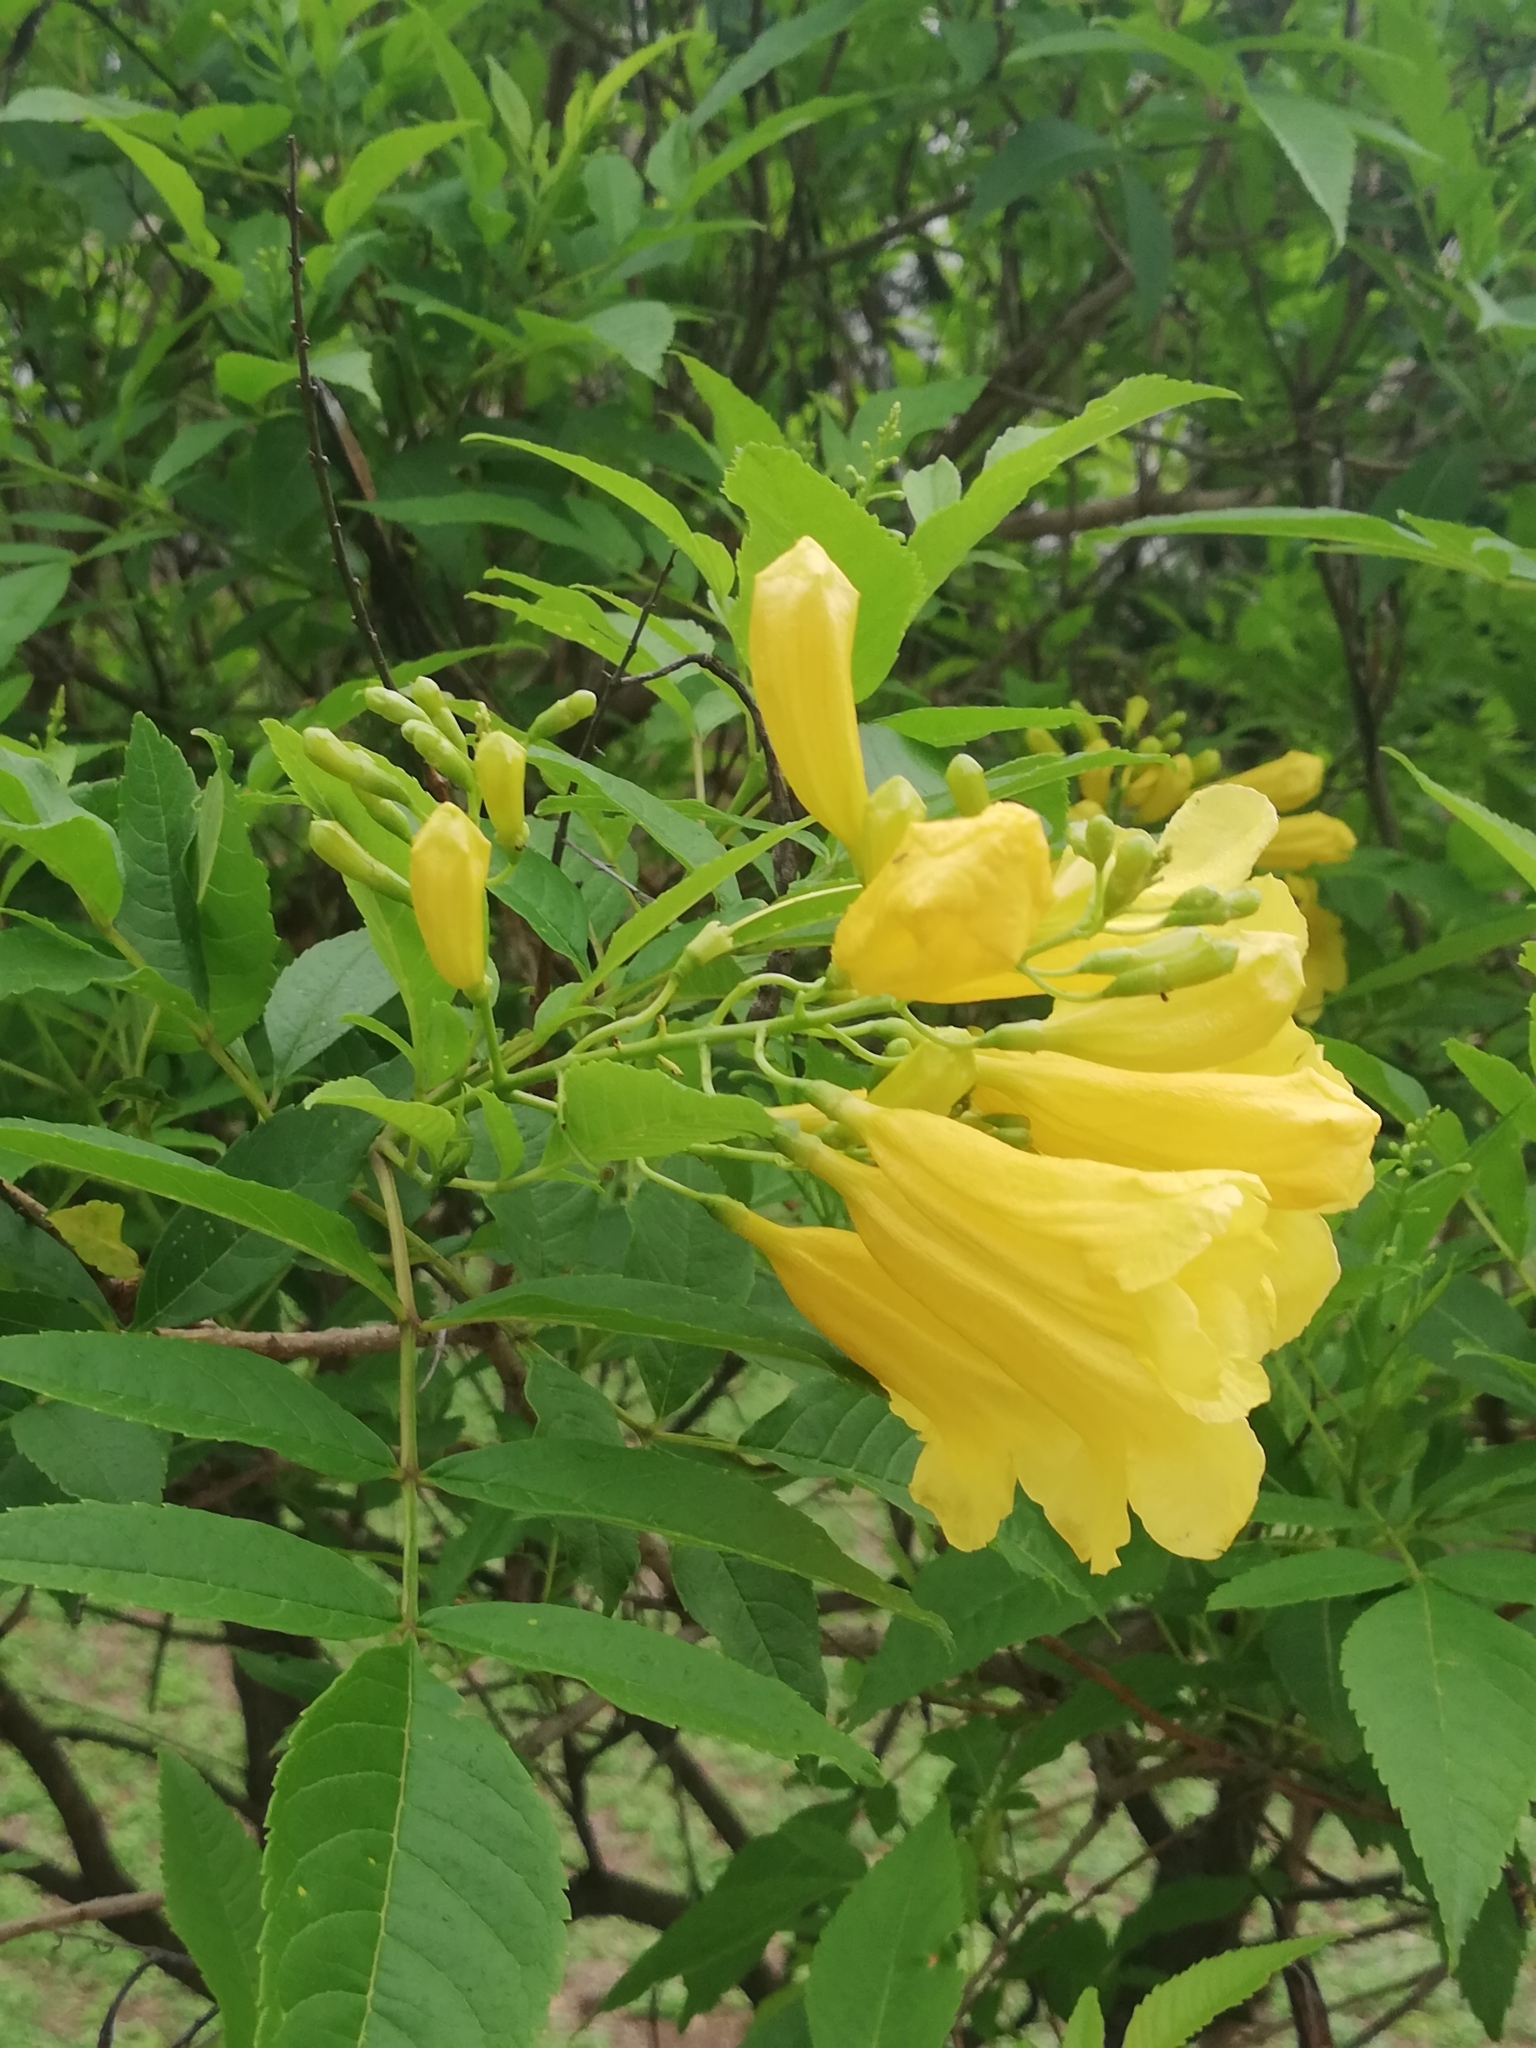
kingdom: Plantae
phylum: Tracheophyta
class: Magnoliopsida
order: Lamiales
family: Bignoniaceae
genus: Tecoma
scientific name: Tecoma stans
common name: Yellow trumpetbush
